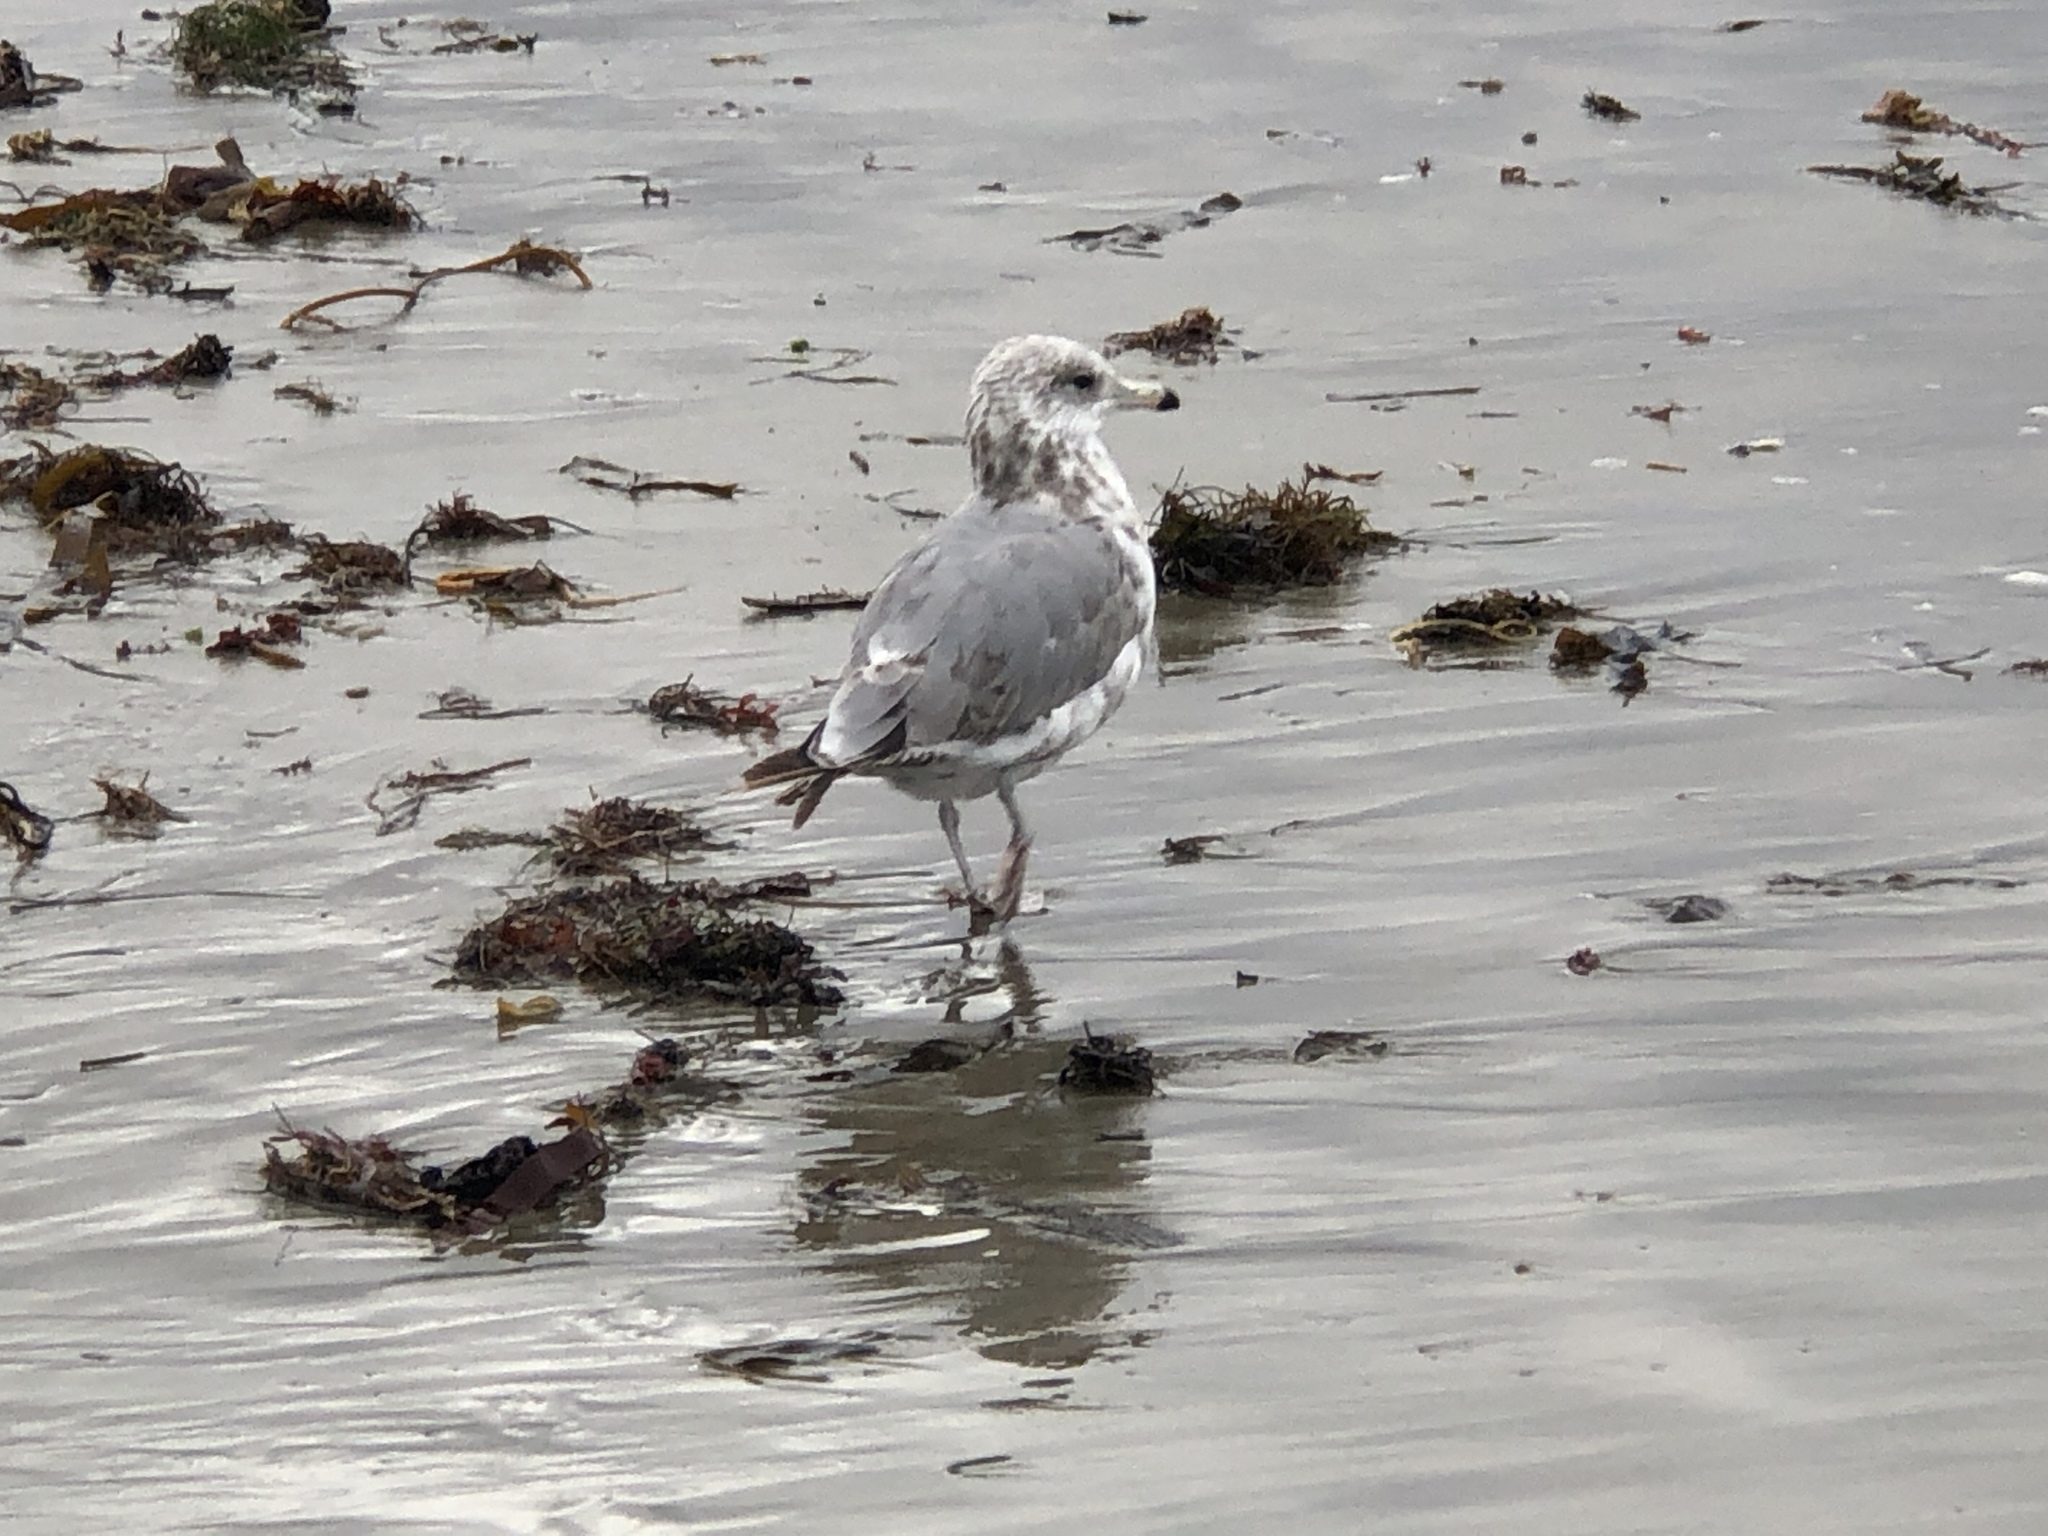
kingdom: Animalia
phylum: Chordata
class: Aves
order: Charadriiformes
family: Laridae
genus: Larus
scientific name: Larus californicus
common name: California gull
